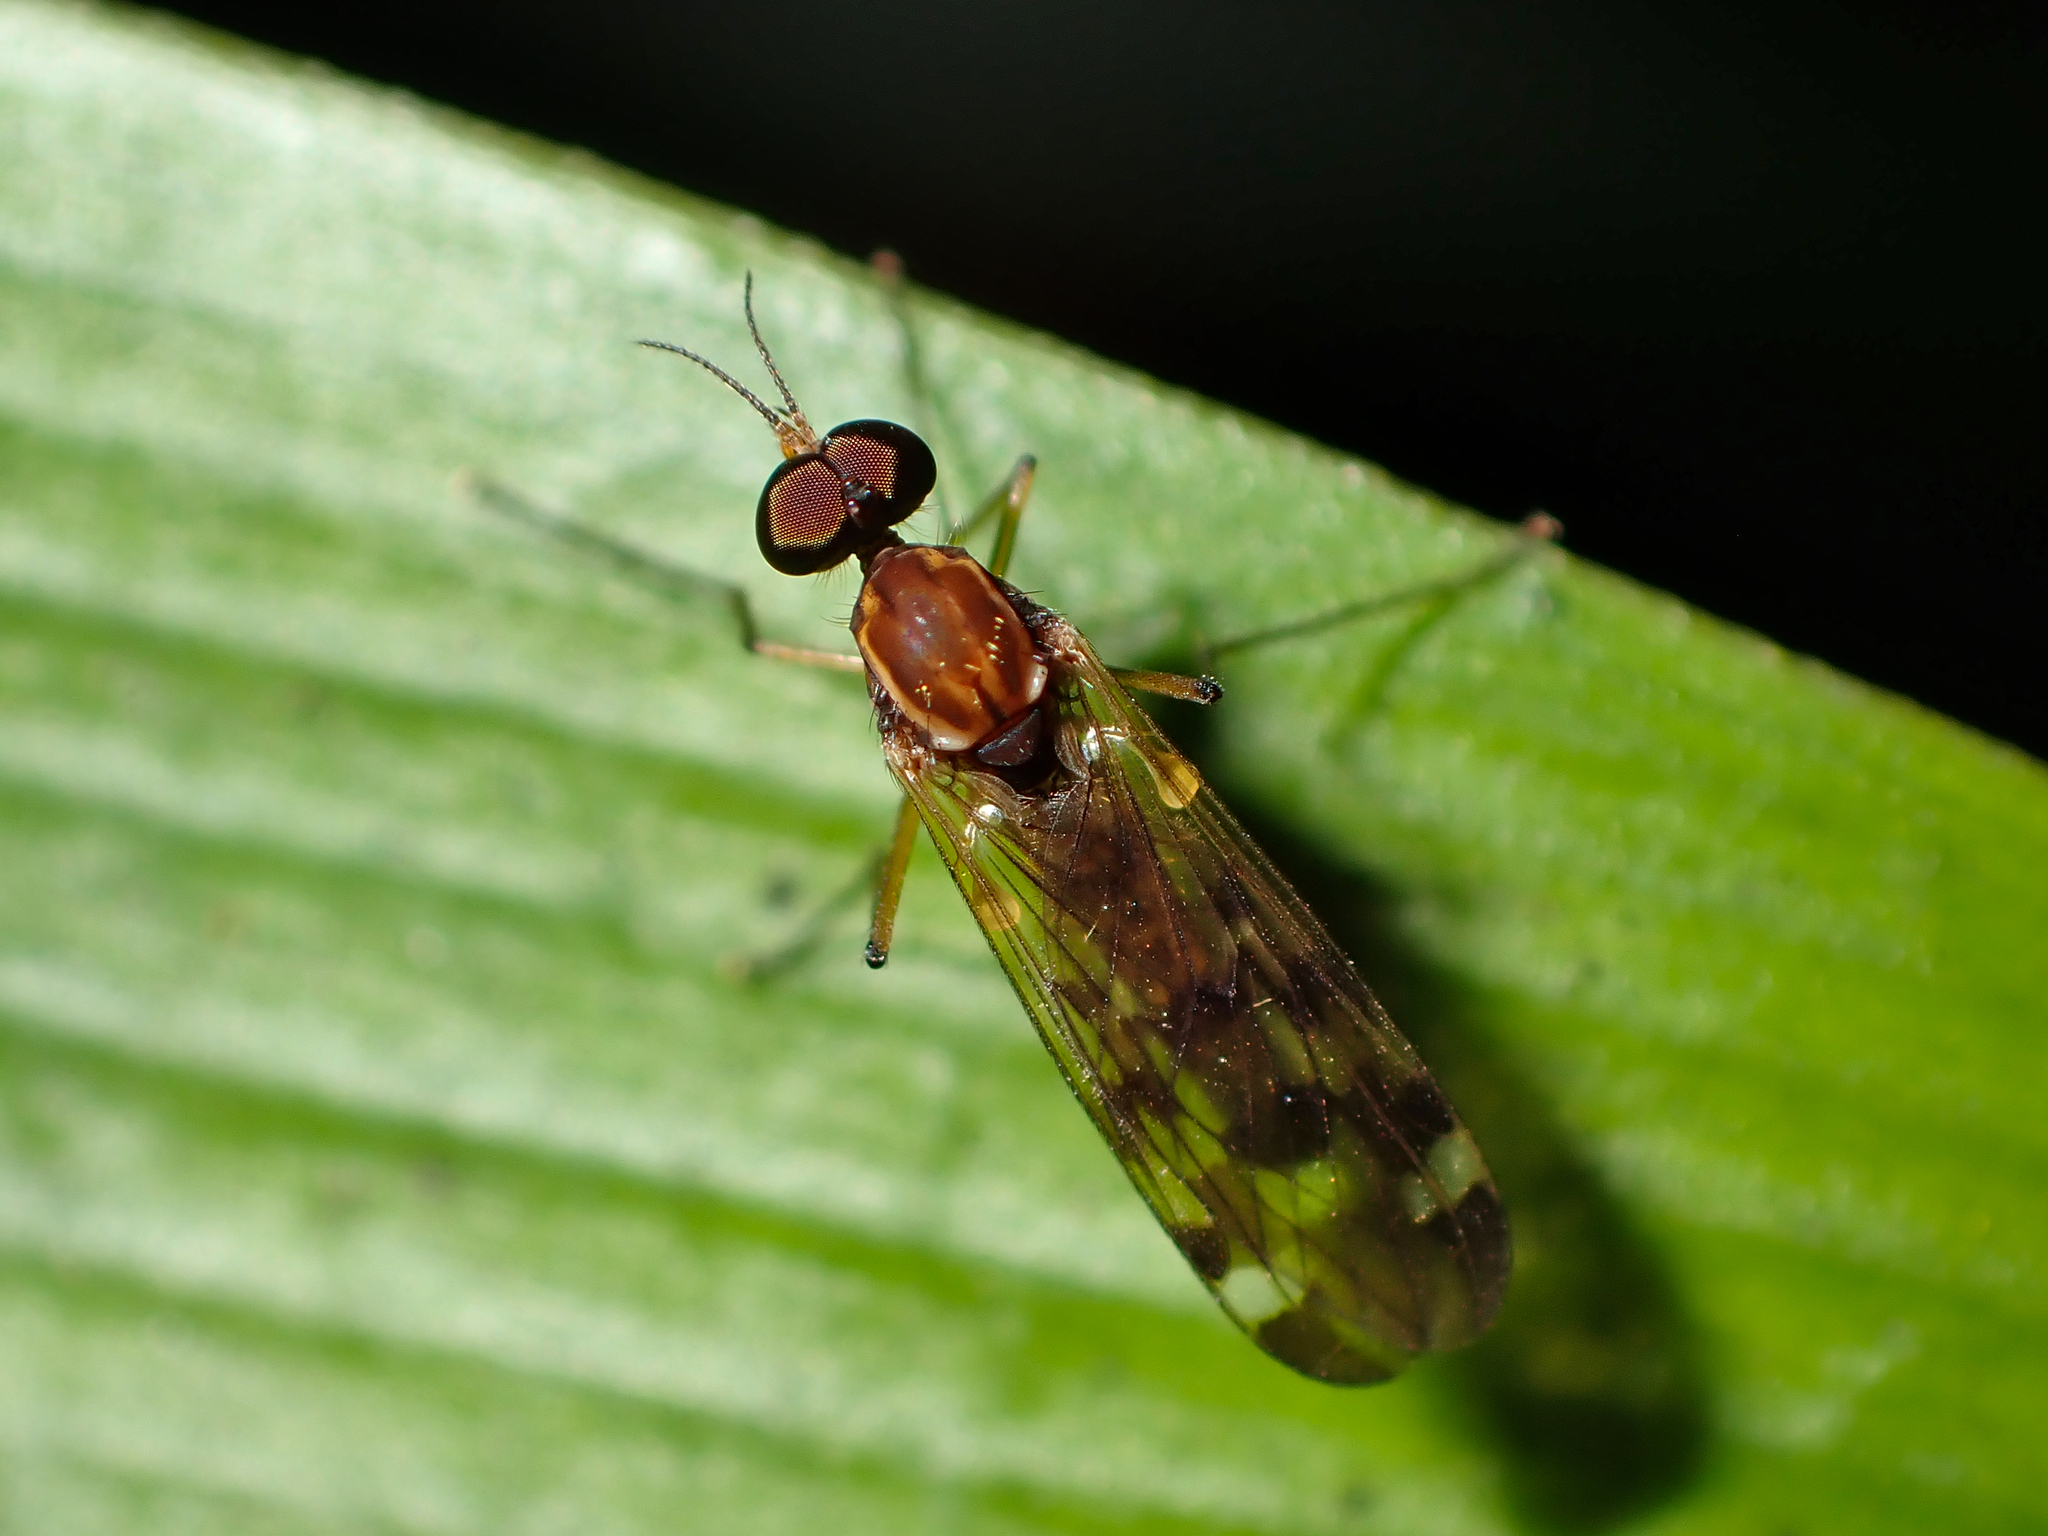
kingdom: Animalia
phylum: Arthropoda
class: Insecta
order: Diptera
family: Anisopodidae
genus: Sylvicola
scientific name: Sylvicola notatus
